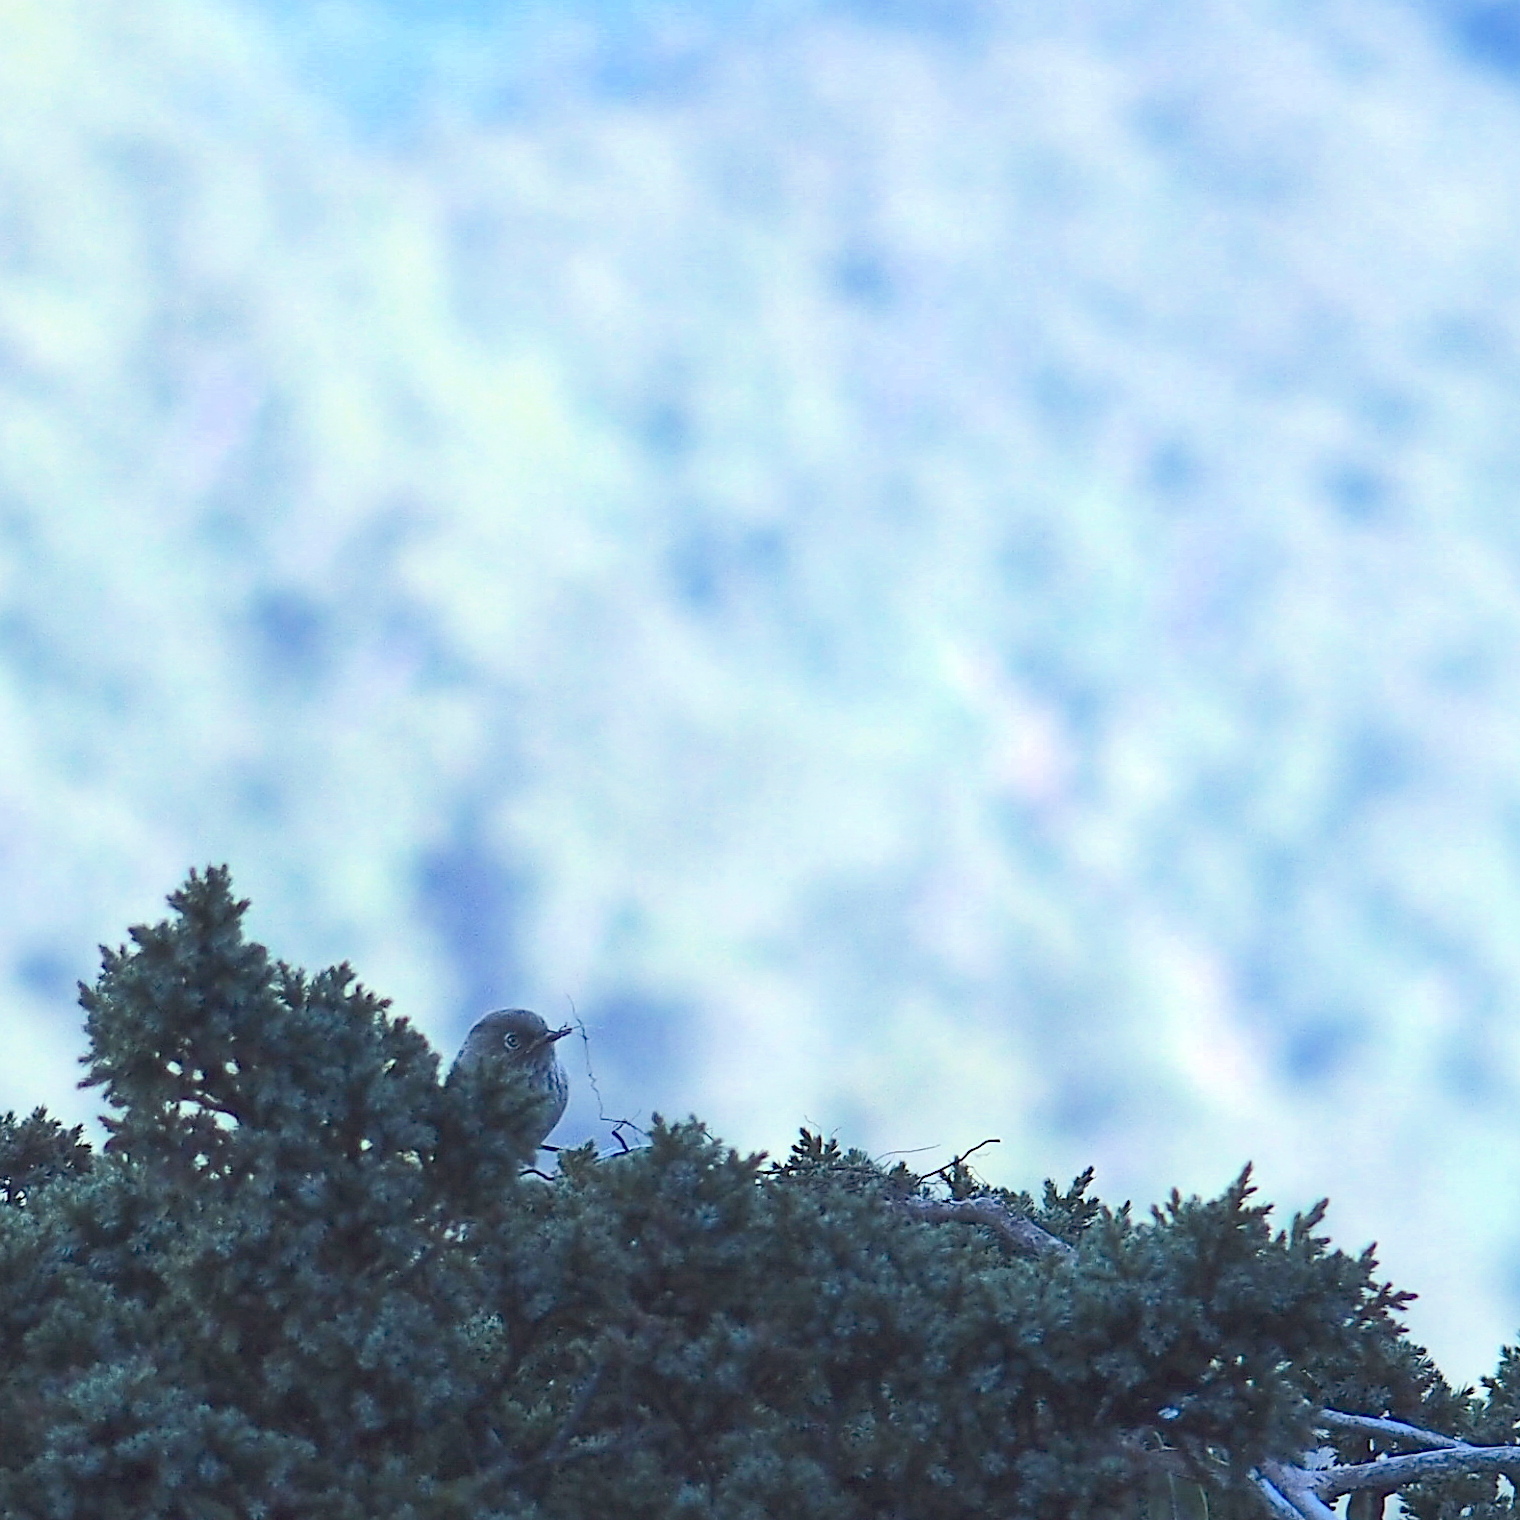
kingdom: Animalia
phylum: Chordata
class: Aves
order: Passeriformes
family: Sylviidae
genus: Fulvetta
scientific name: Fulvetta formosana
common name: Taiwan fulvetta
